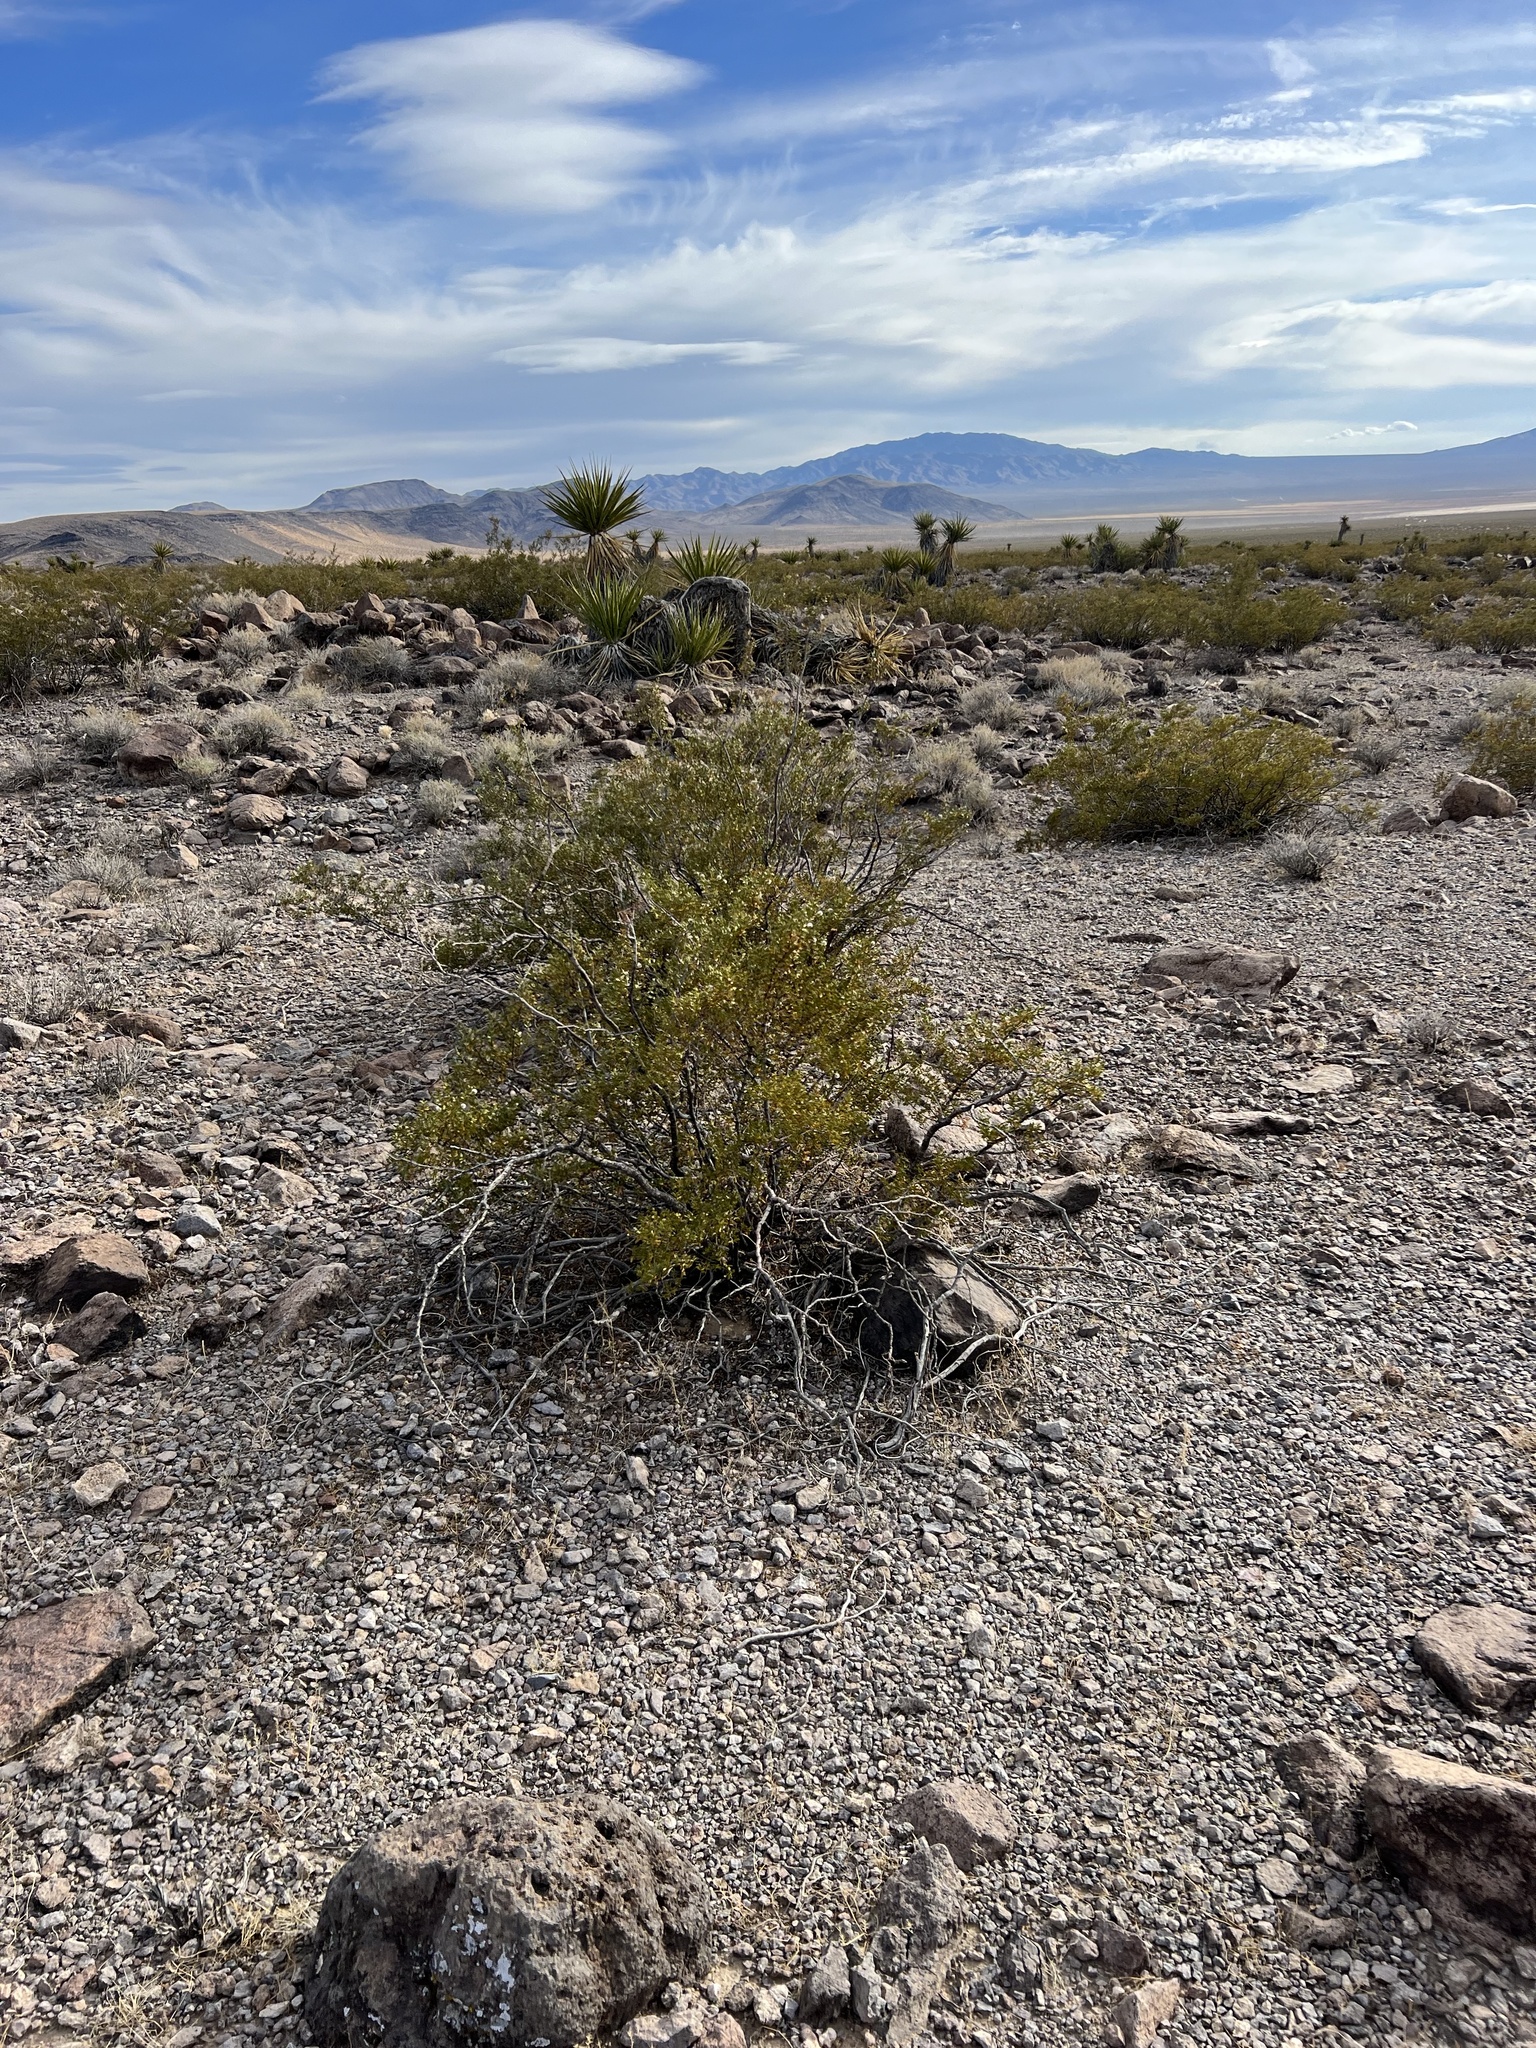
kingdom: Plantae
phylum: Tracheophyta
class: Magnoliopsida
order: Zygophyllales
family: Zygophyllaceae
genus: Larrea
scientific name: Larrea tridentata
